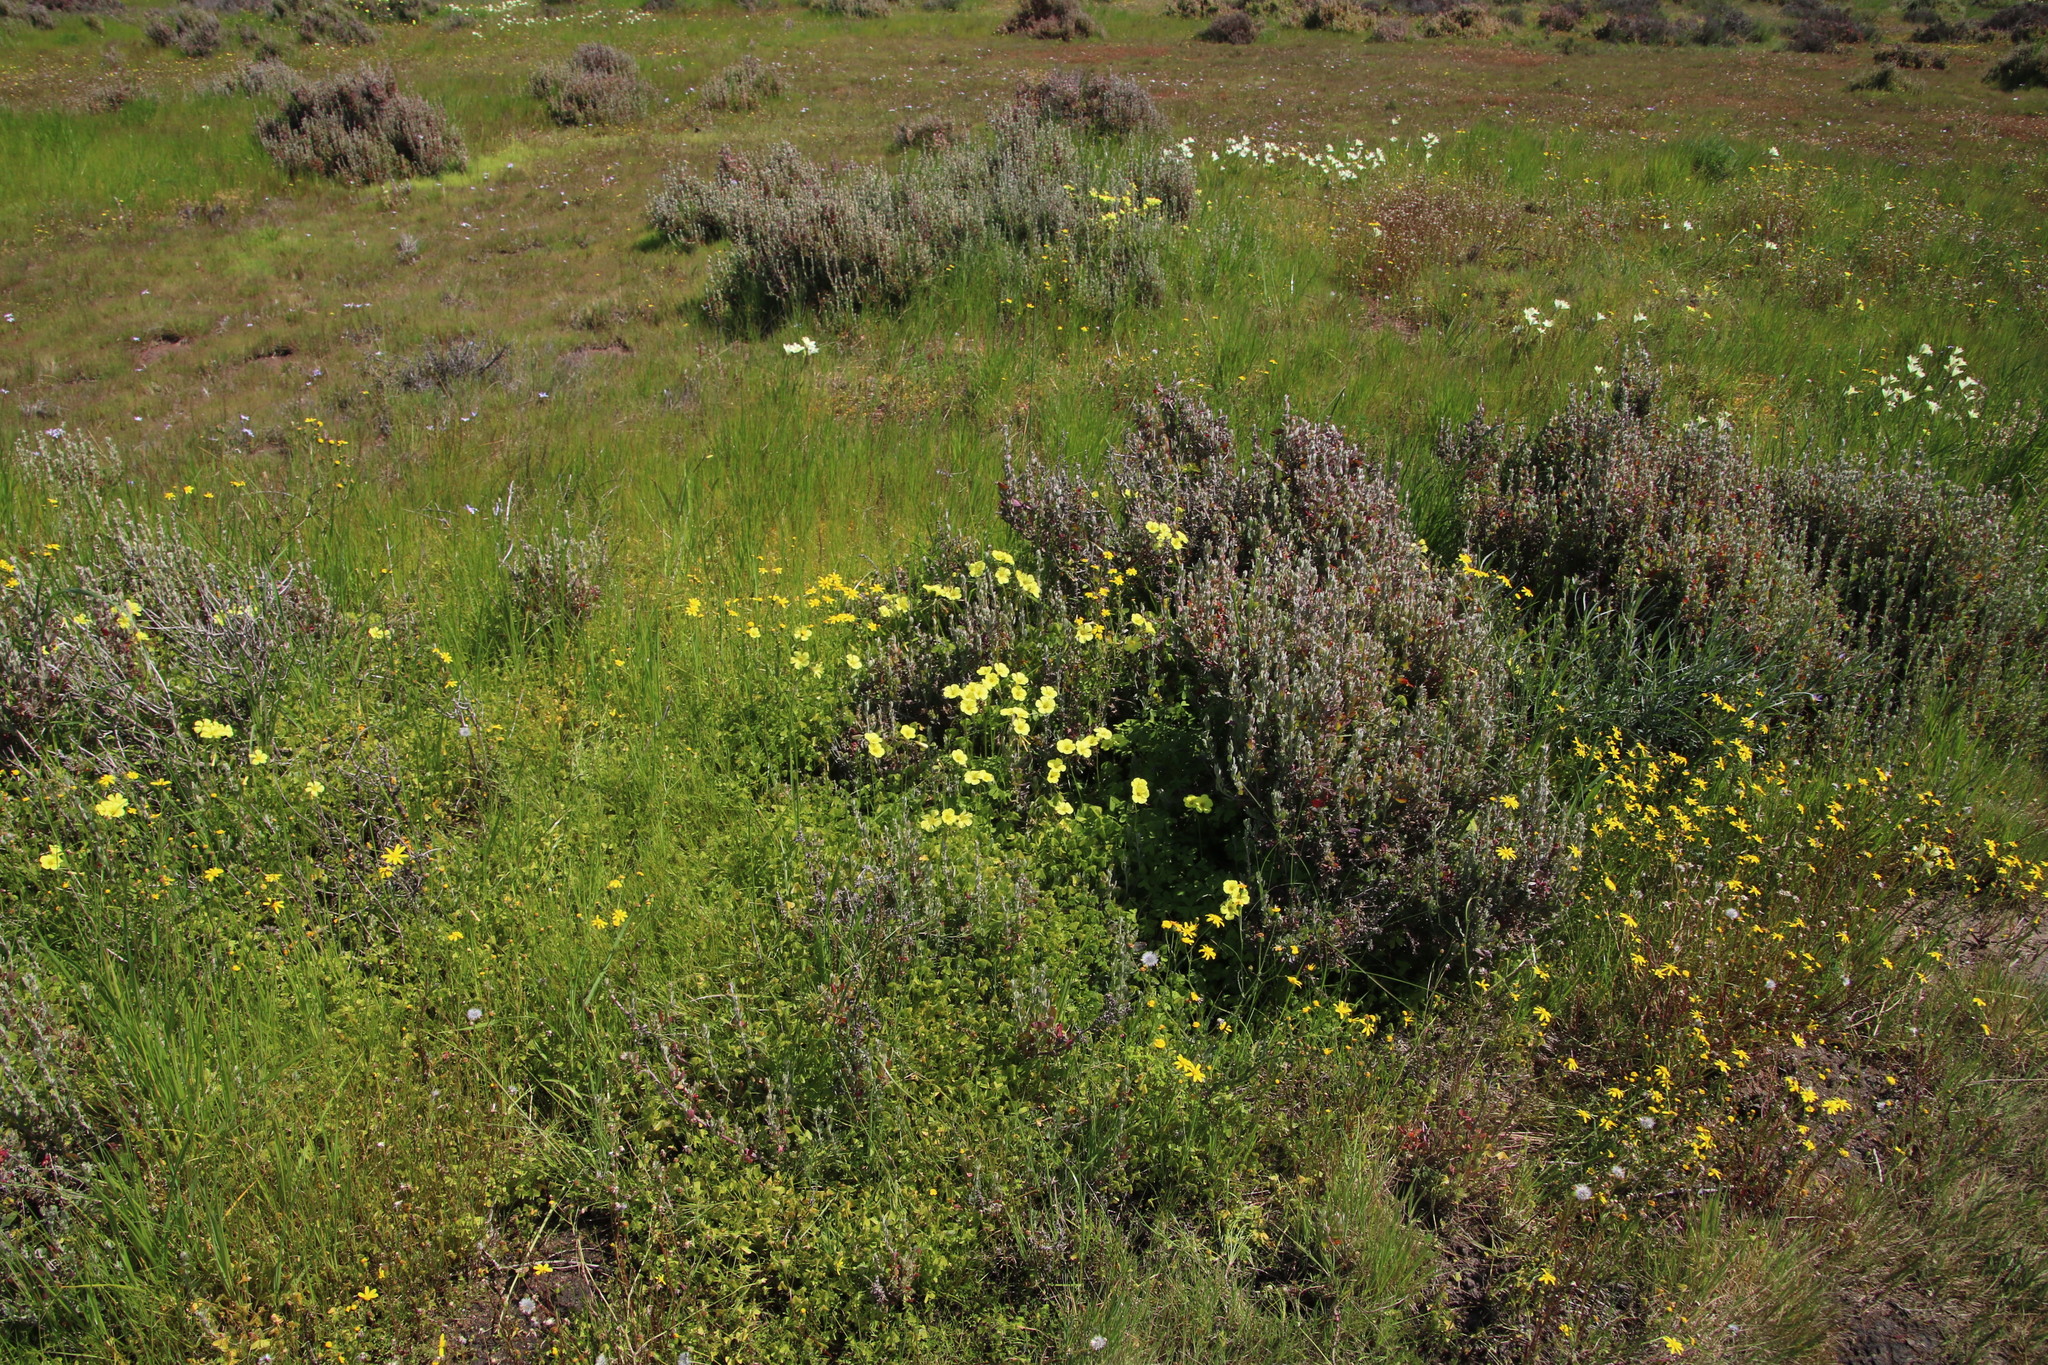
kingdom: Plantae
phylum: Tracheophyta
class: Magnoliopsida
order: Oxalidales
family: Oxalidaceae
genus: Oxalis
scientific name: Oxalis pes-caprae
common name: Bermuda-buttercup
